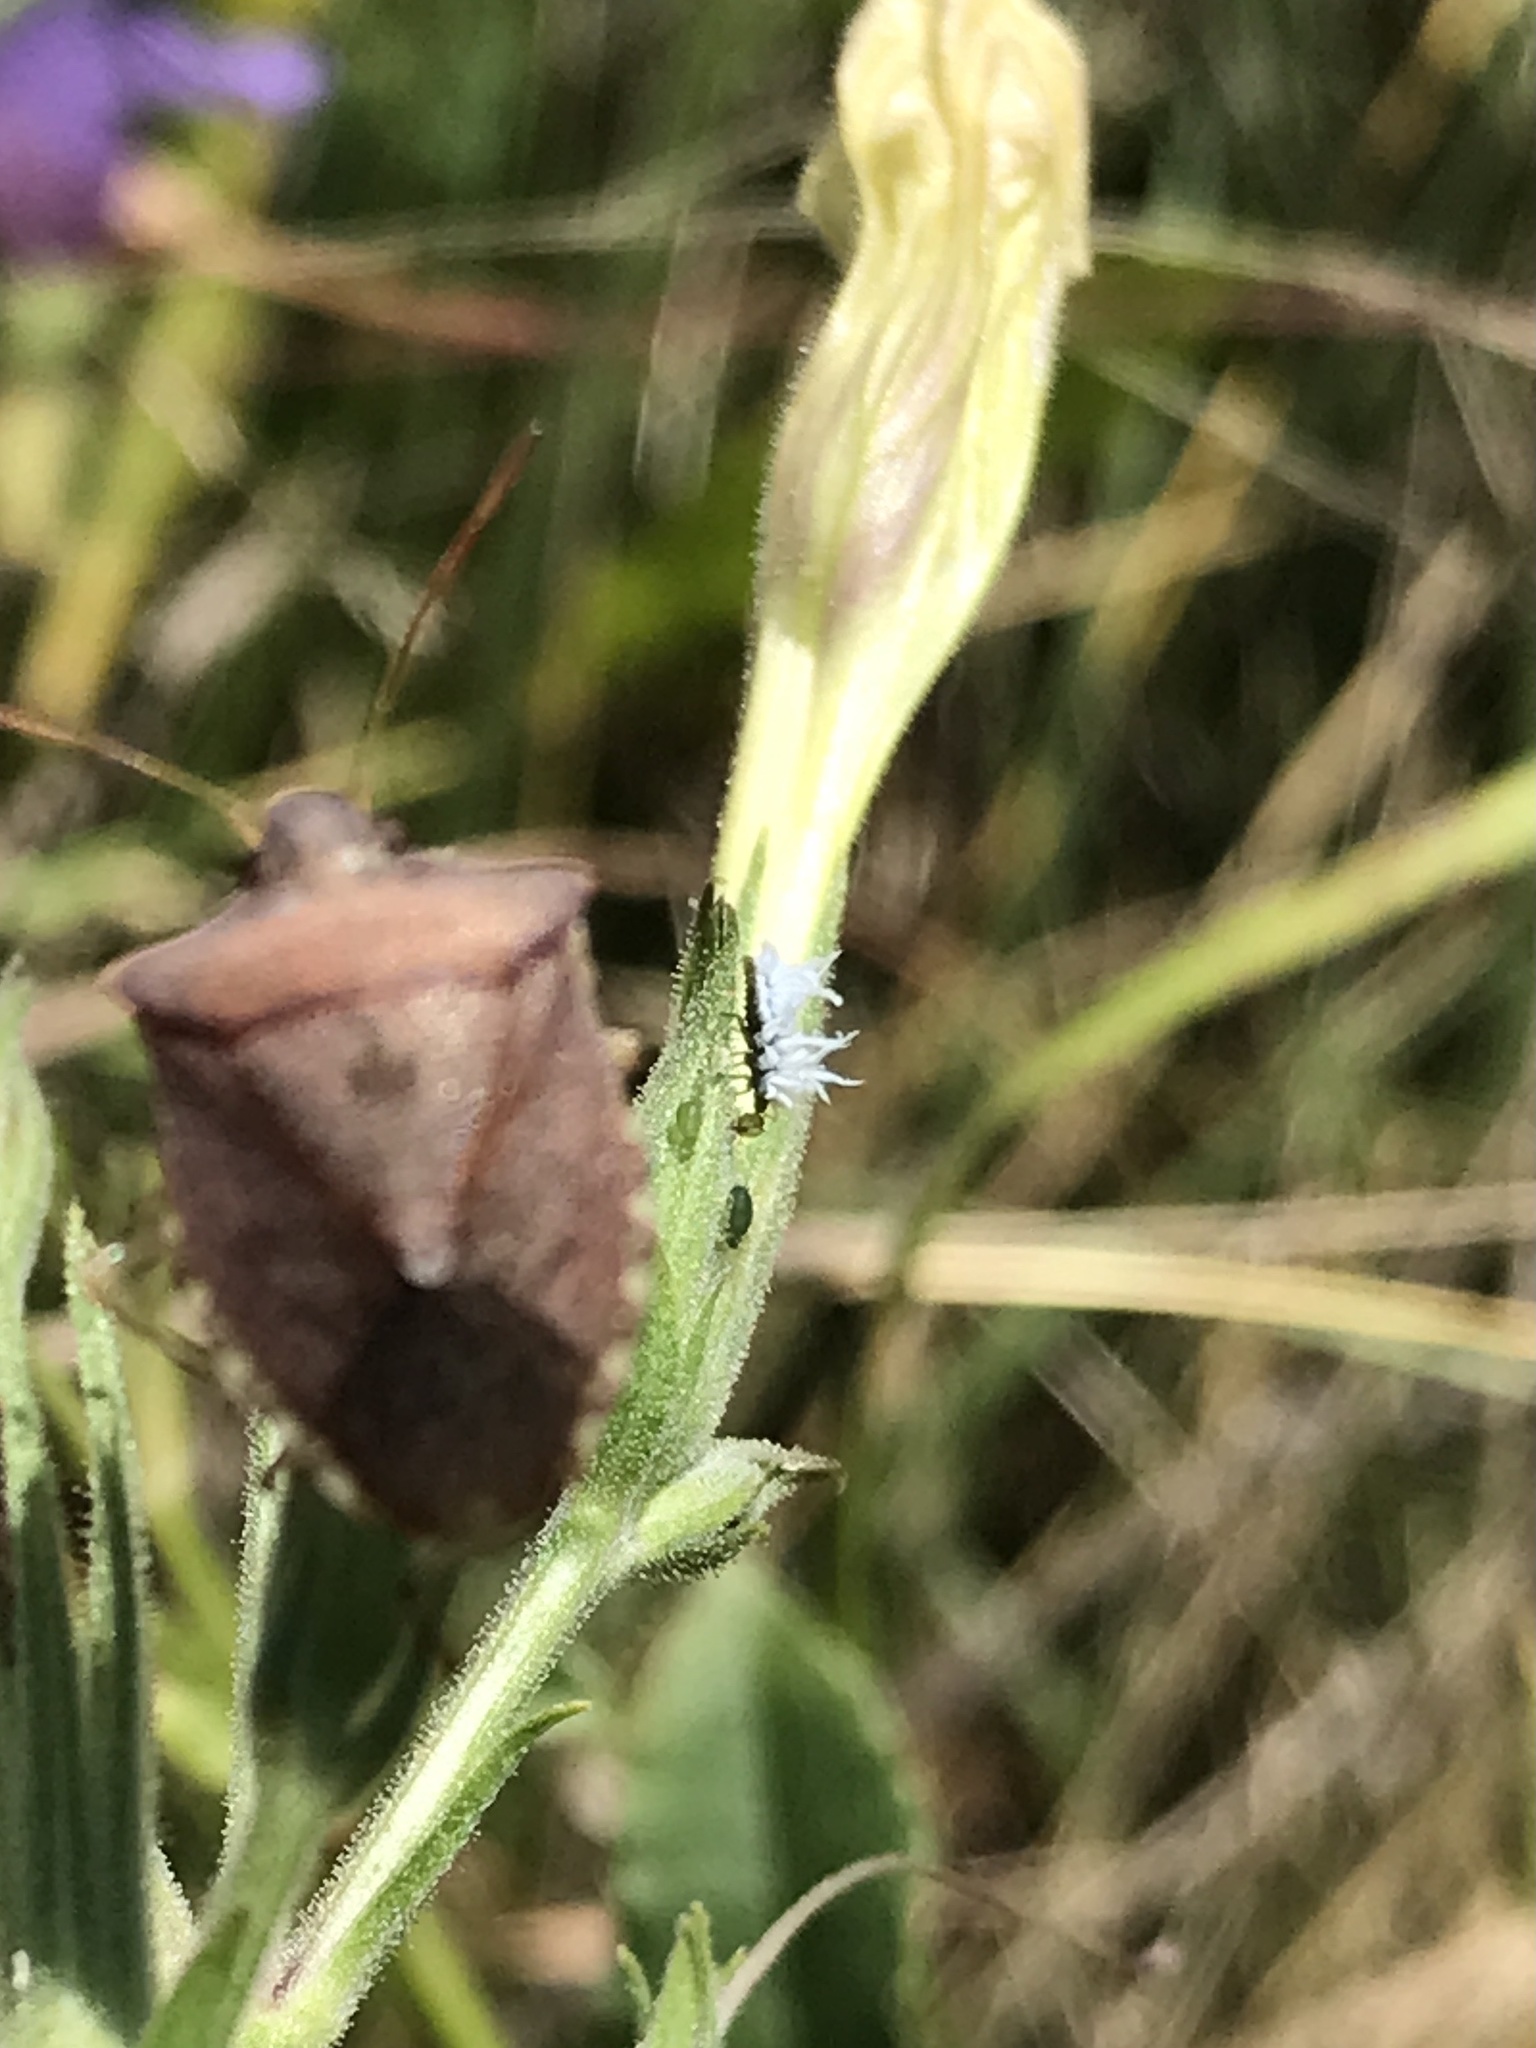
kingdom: Animalia
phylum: Arthropoda
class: Insecta
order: Coleoptera
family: Coccinellidae
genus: Cryptolaemus
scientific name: Cryptolaemus montrouzieri
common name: Mealybug destroyer
